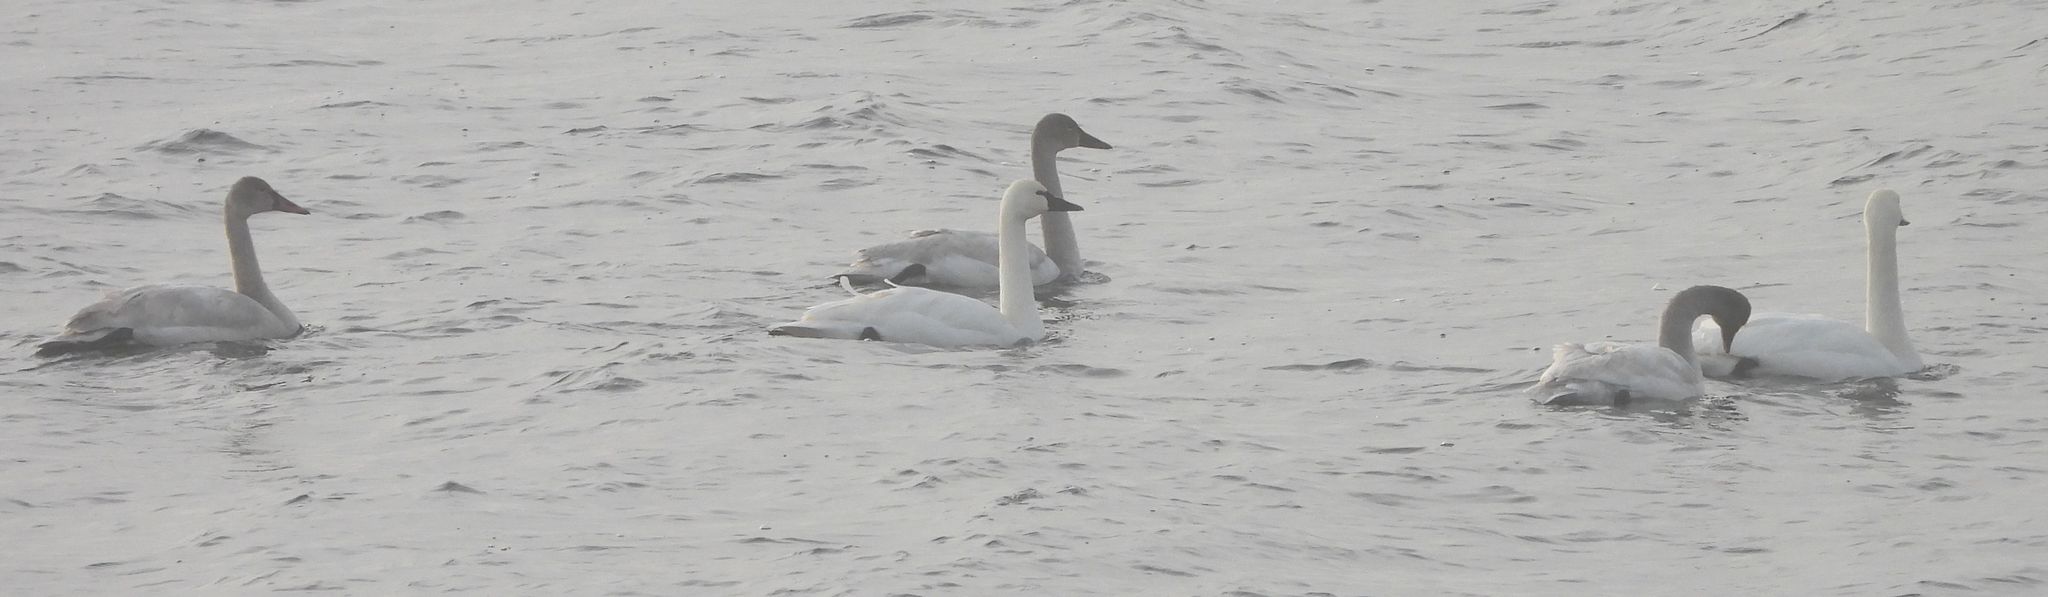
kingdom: Animalia
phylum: Chordata
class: Aves
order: Anseriformes
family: Anatidae
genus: Cygnus
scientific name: Cygnus columbianus
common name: Tundra swan
